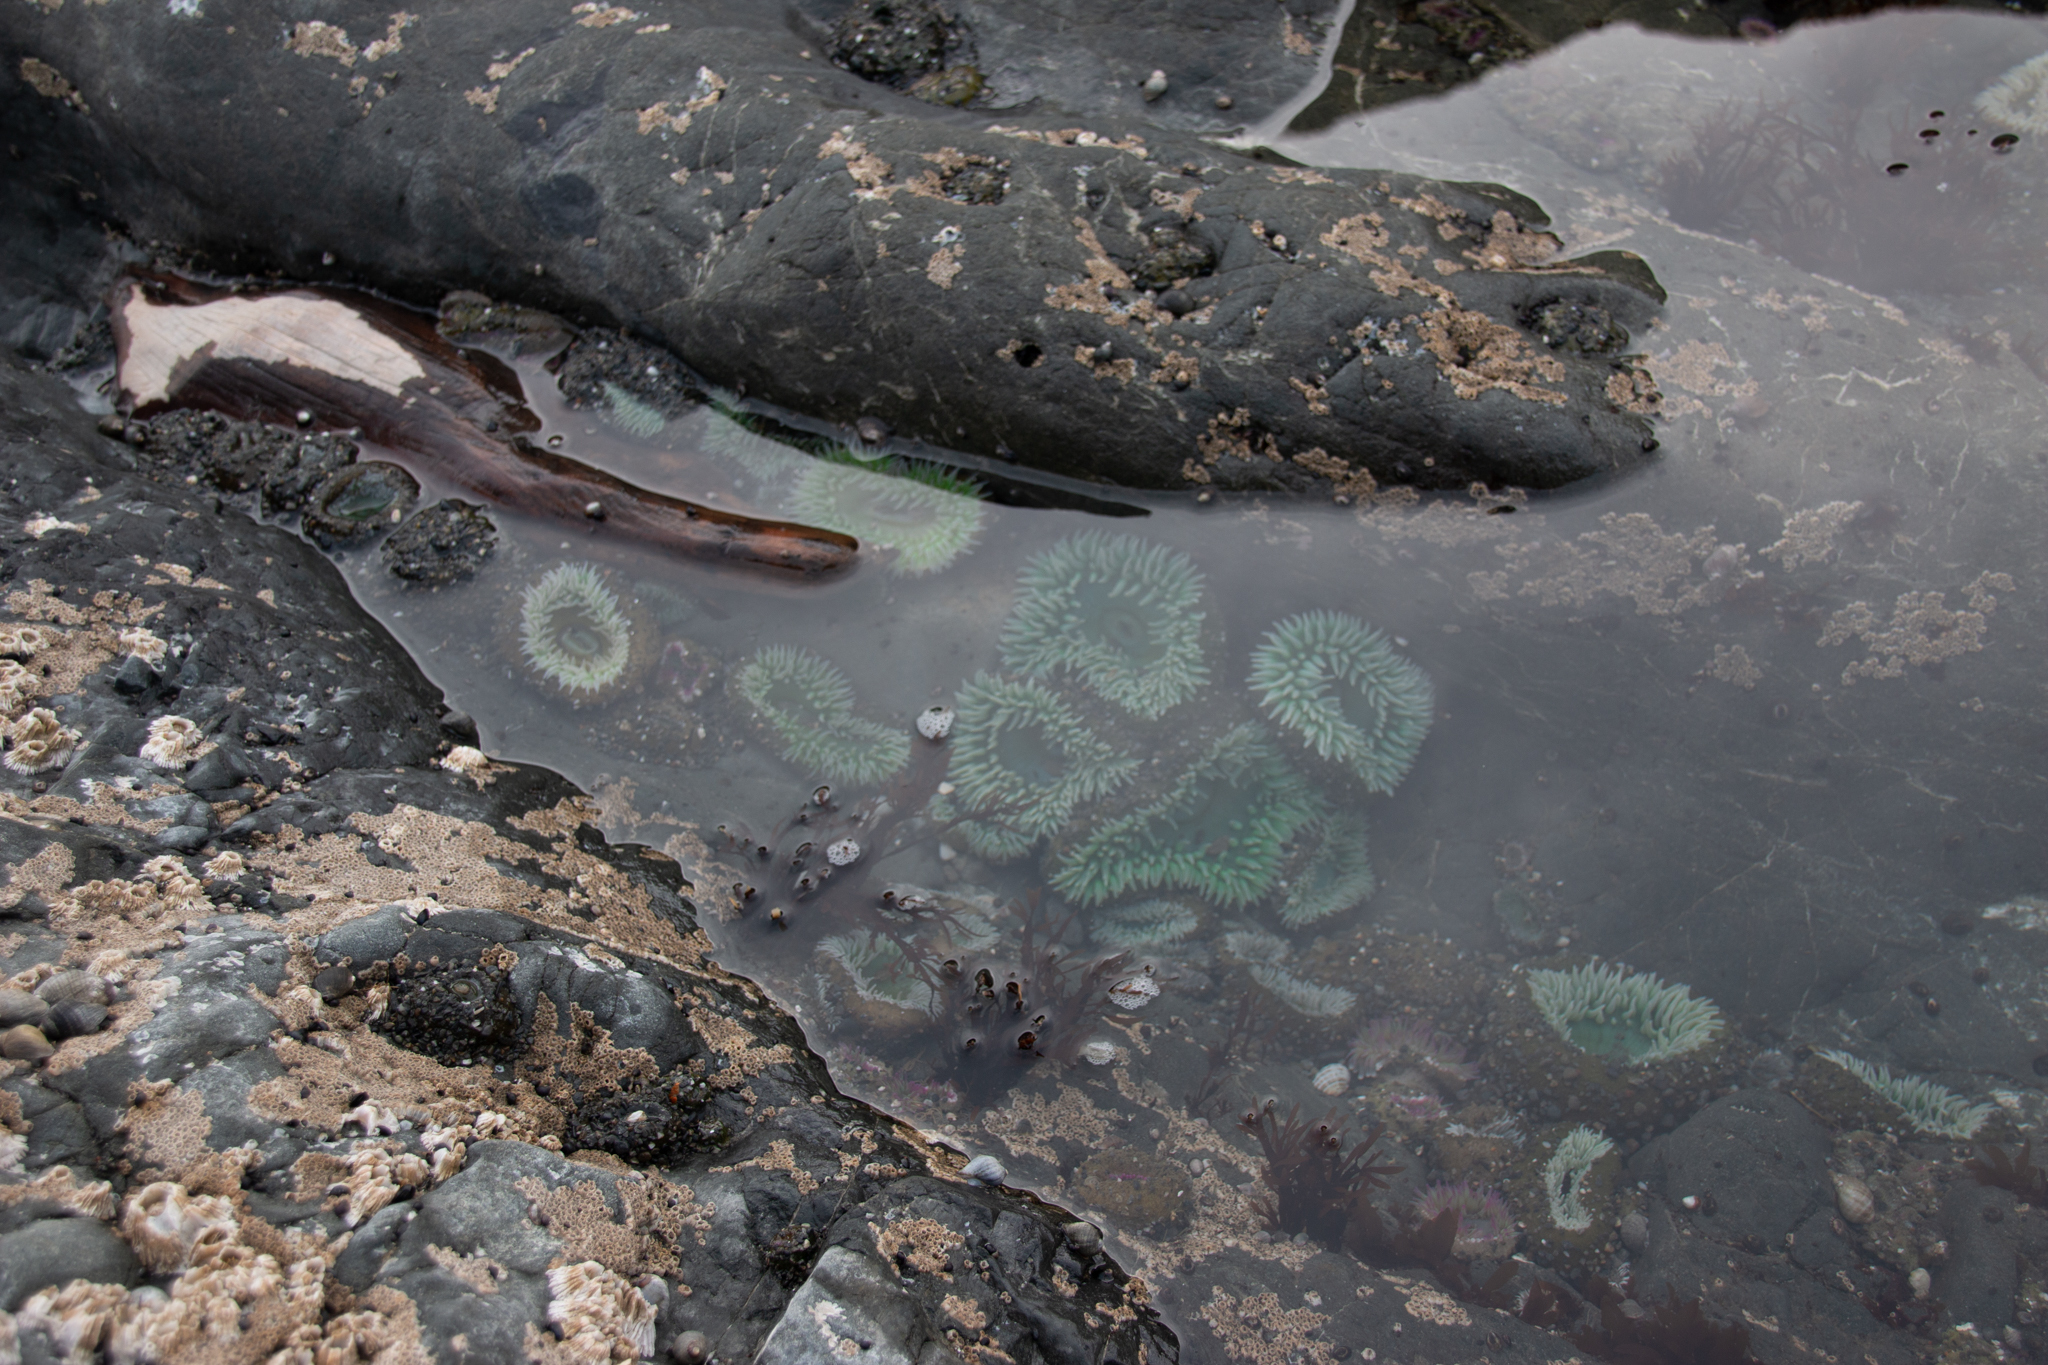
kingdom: Animalia
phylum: Cnidaria
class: Anthozoa
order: Actiniaria
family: Actiniidae
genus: Anthopleura
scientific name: Anthopleura xanthogrammica
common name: Giant green anemone
